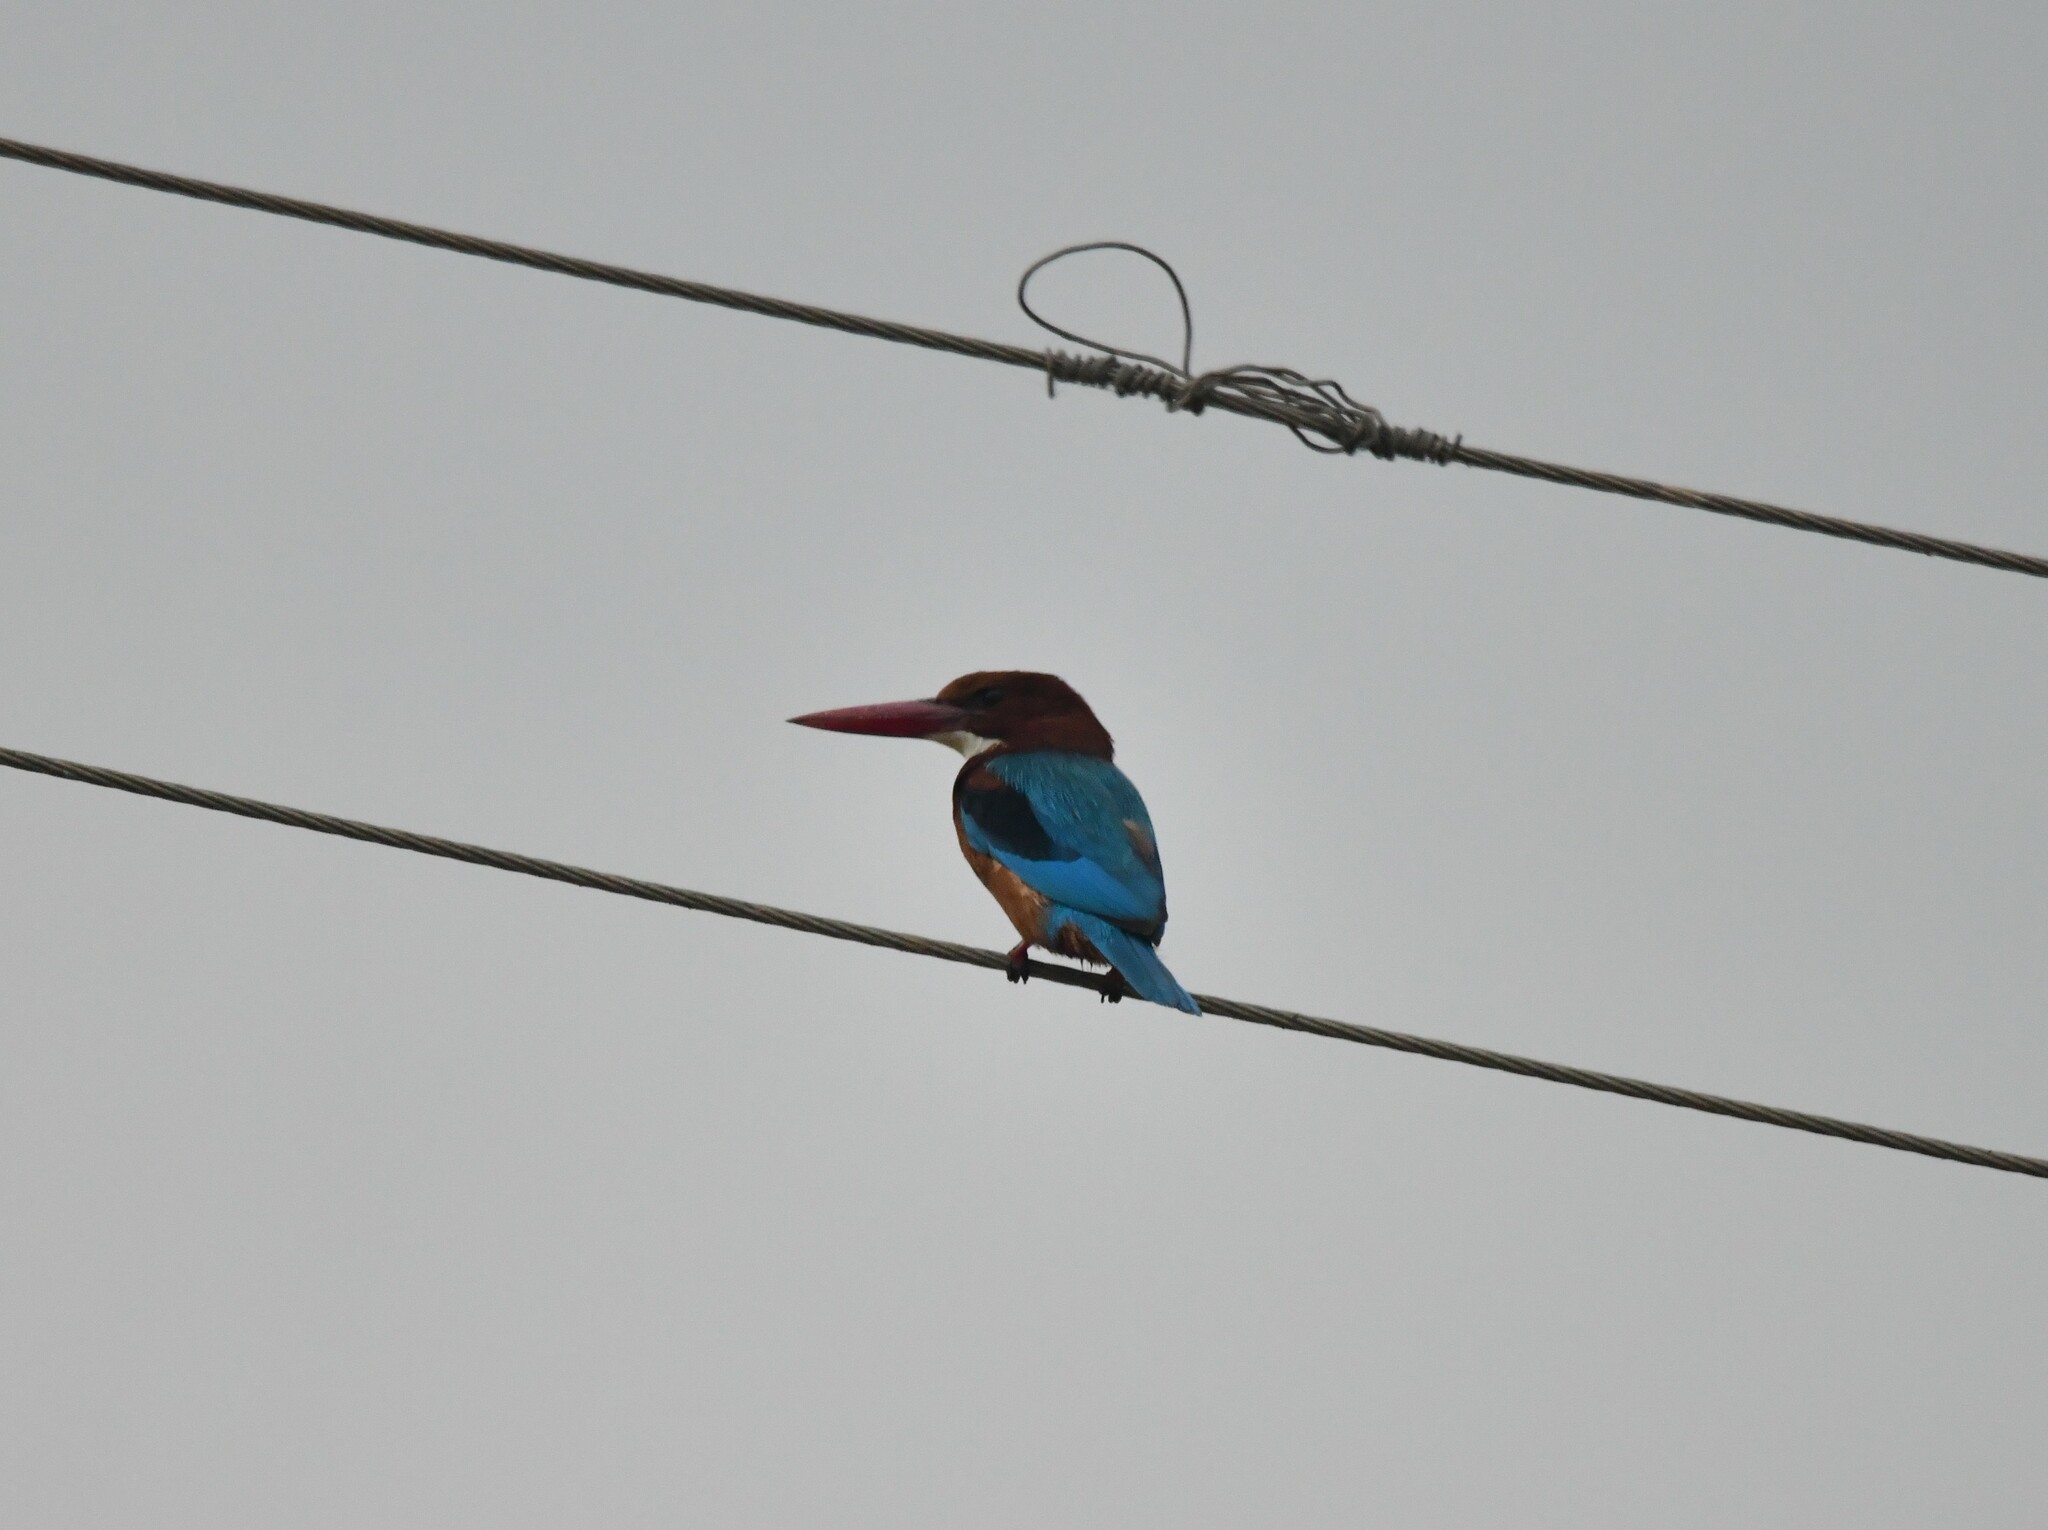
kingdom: Animalia
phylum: Chordata
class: Aves
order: Coraciiformes
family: Alcedinidae
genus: Halcyon
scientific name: Halcyon smyrnensis
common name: White-throated kingfisher
